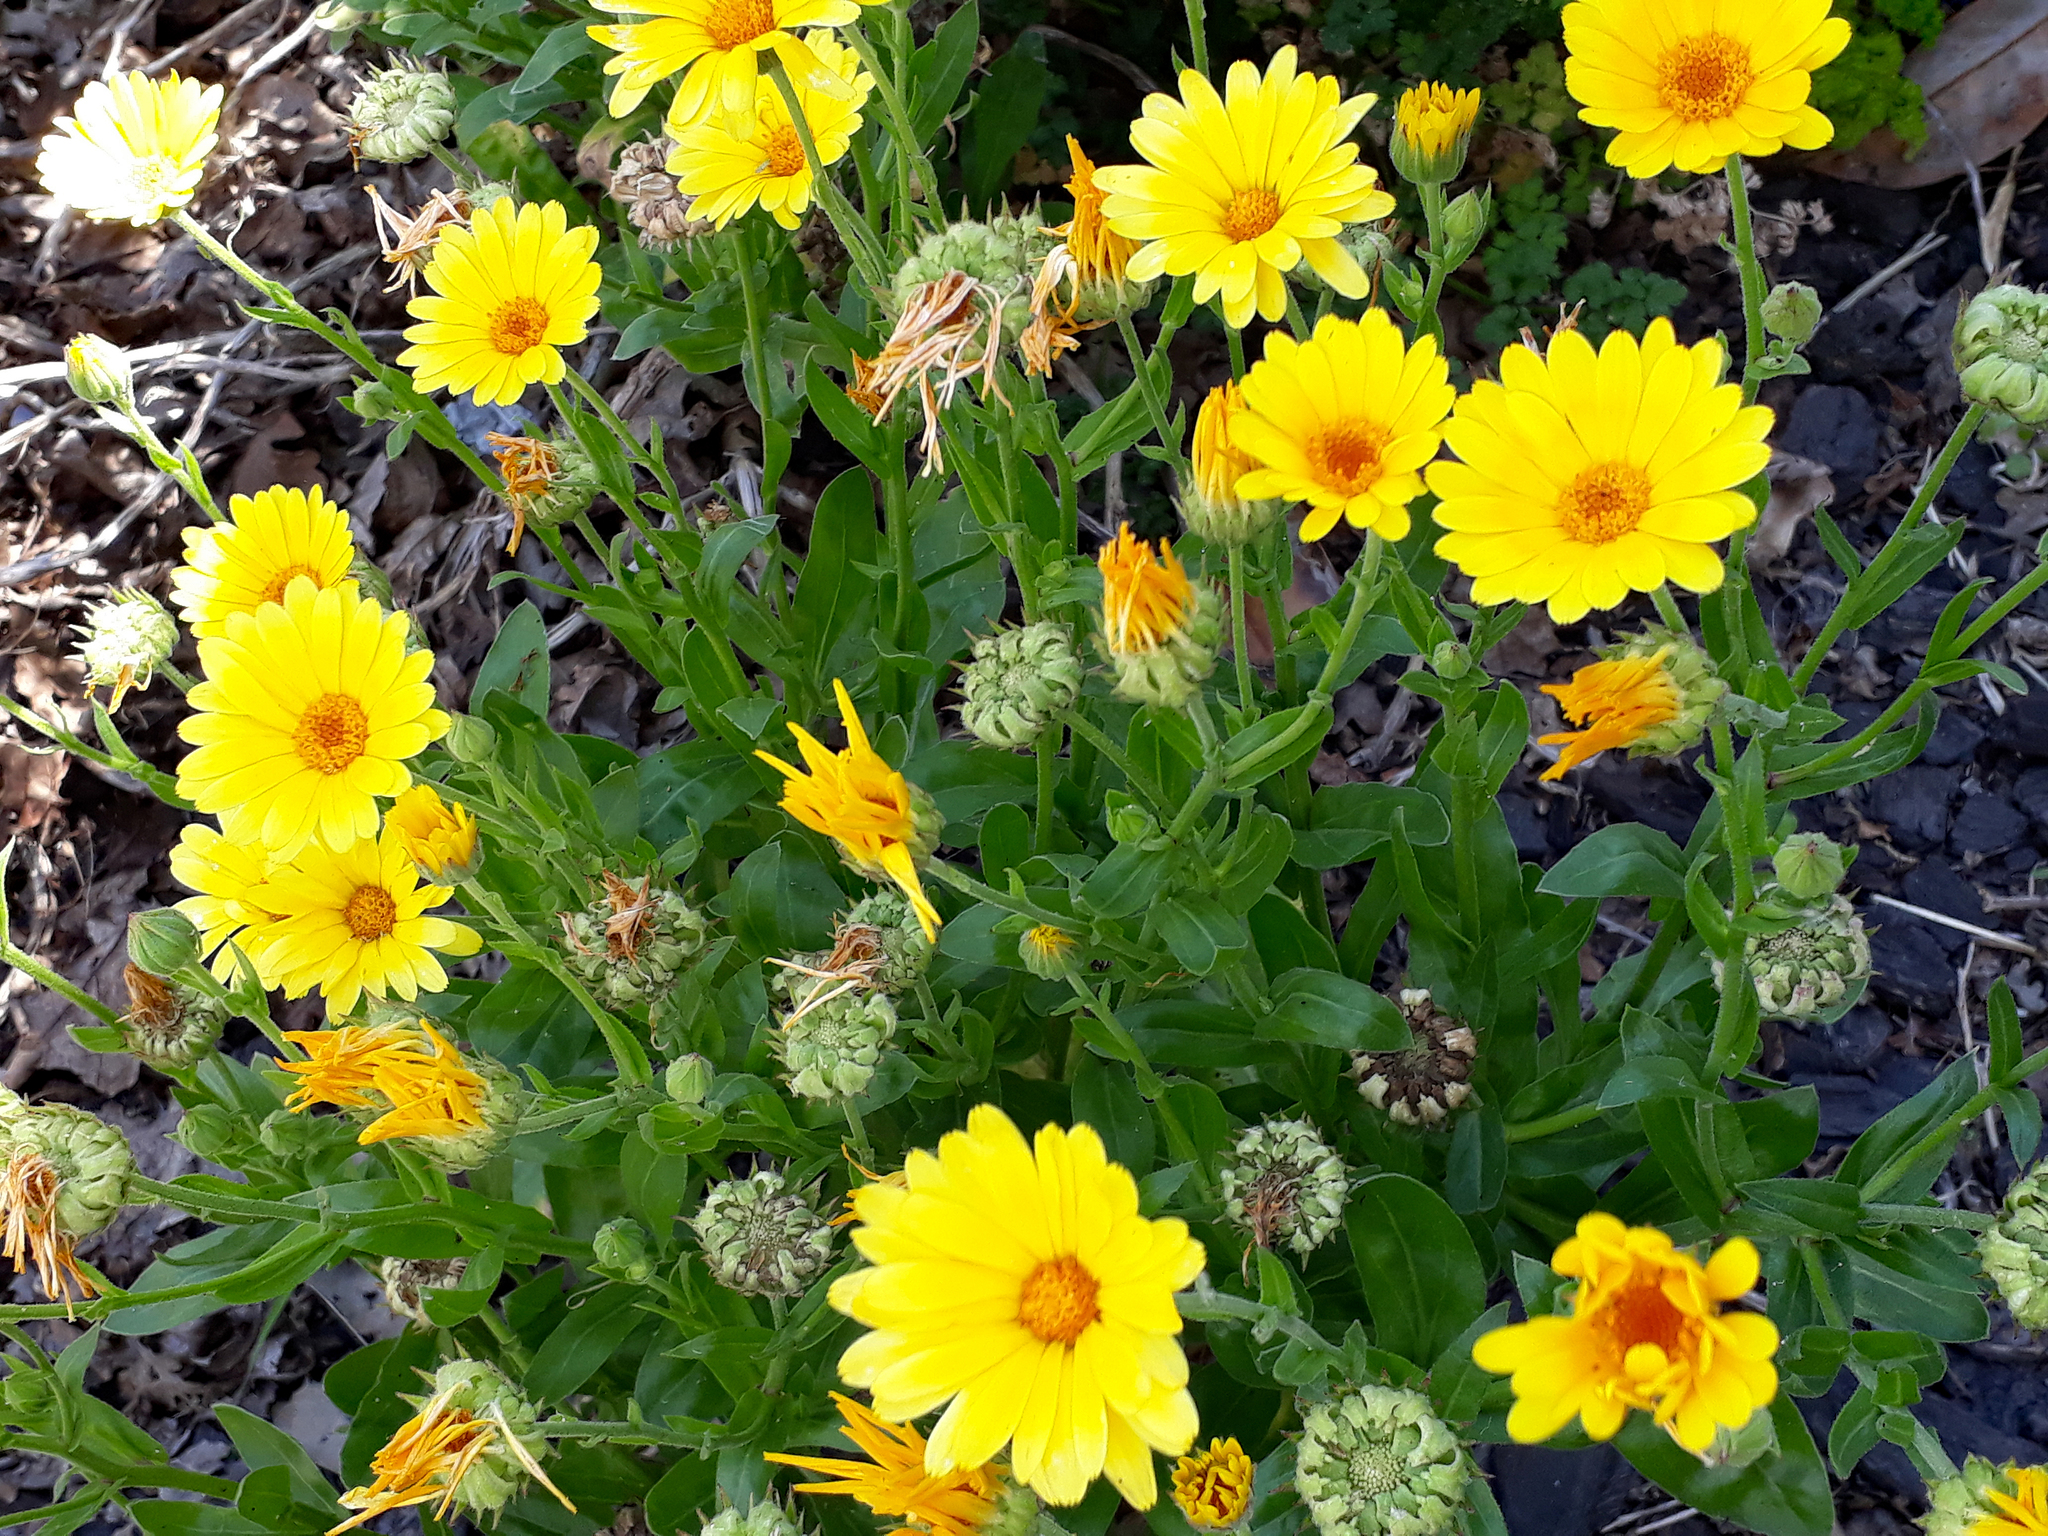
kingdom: Plantae
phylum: Tracheophyta
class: Magnoliopsida
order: Asterales
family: Asteraceae
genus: Calendula
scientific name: Calendula officinalis
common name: Pot marigold
